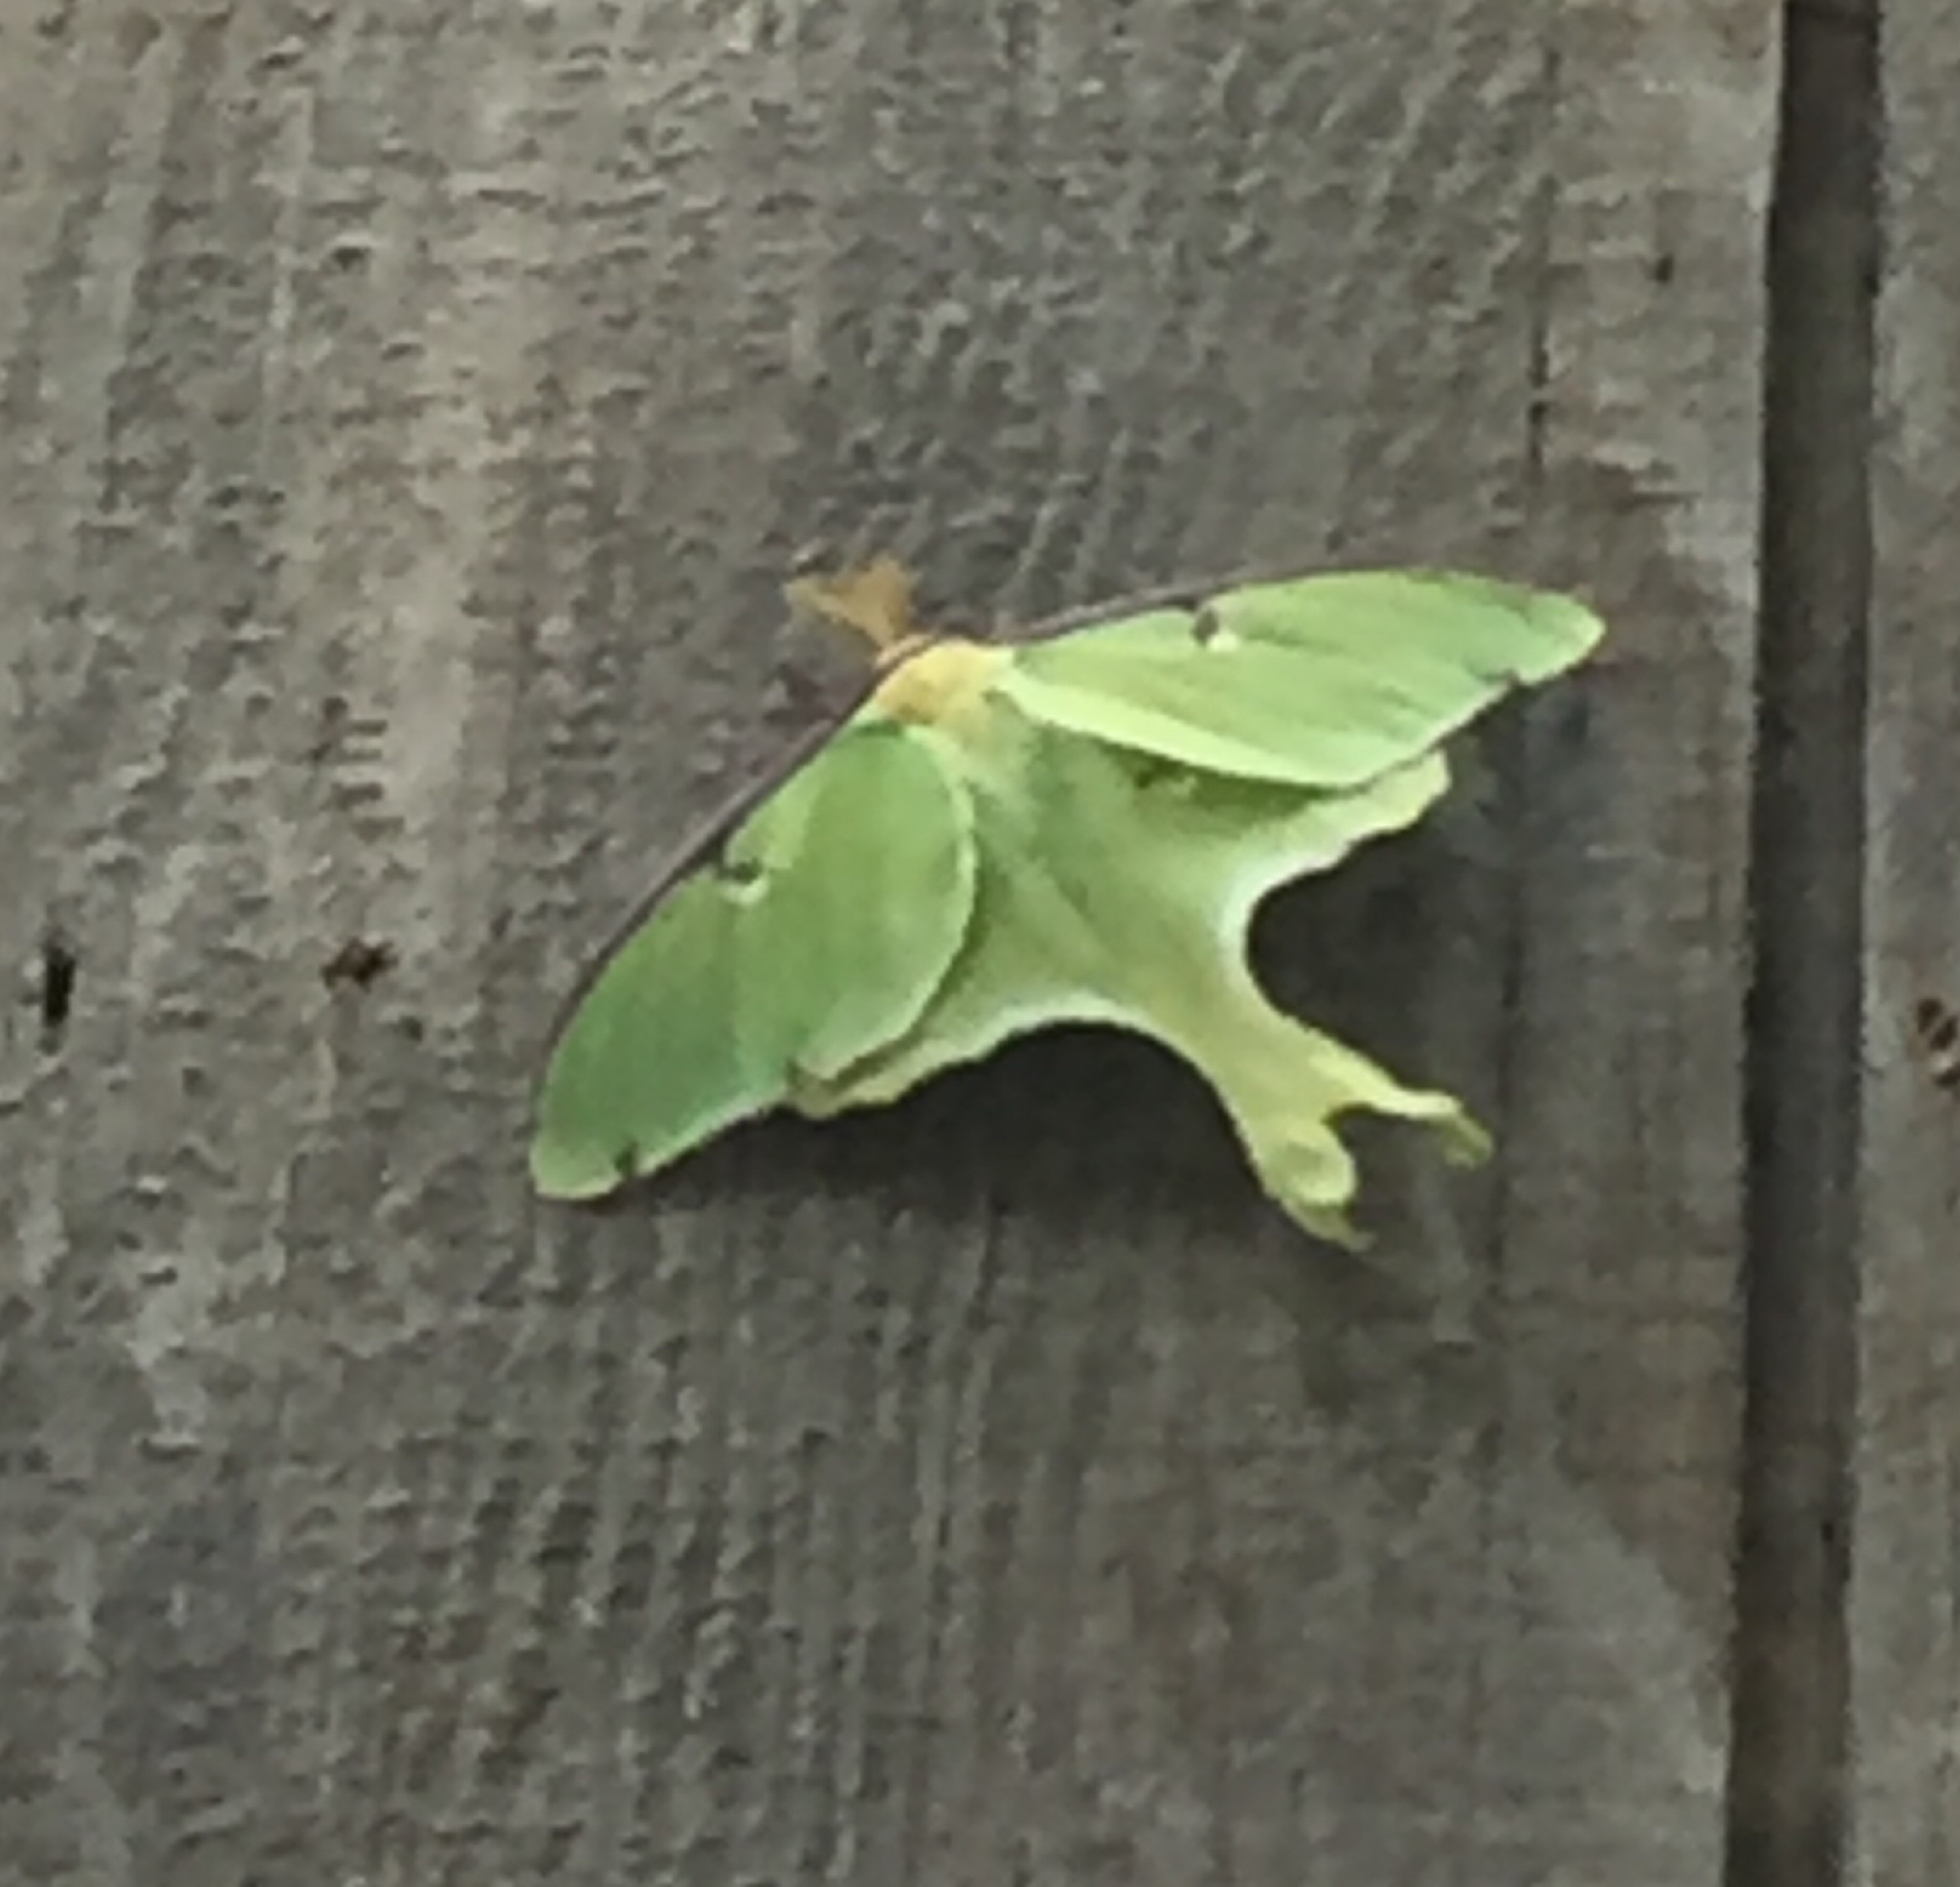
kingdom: Animalia
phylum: Arthropoda
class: Insecta
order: Lepidoptera
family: Saturniidae
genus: Actias
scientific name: Actias luna
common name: Luna moth
